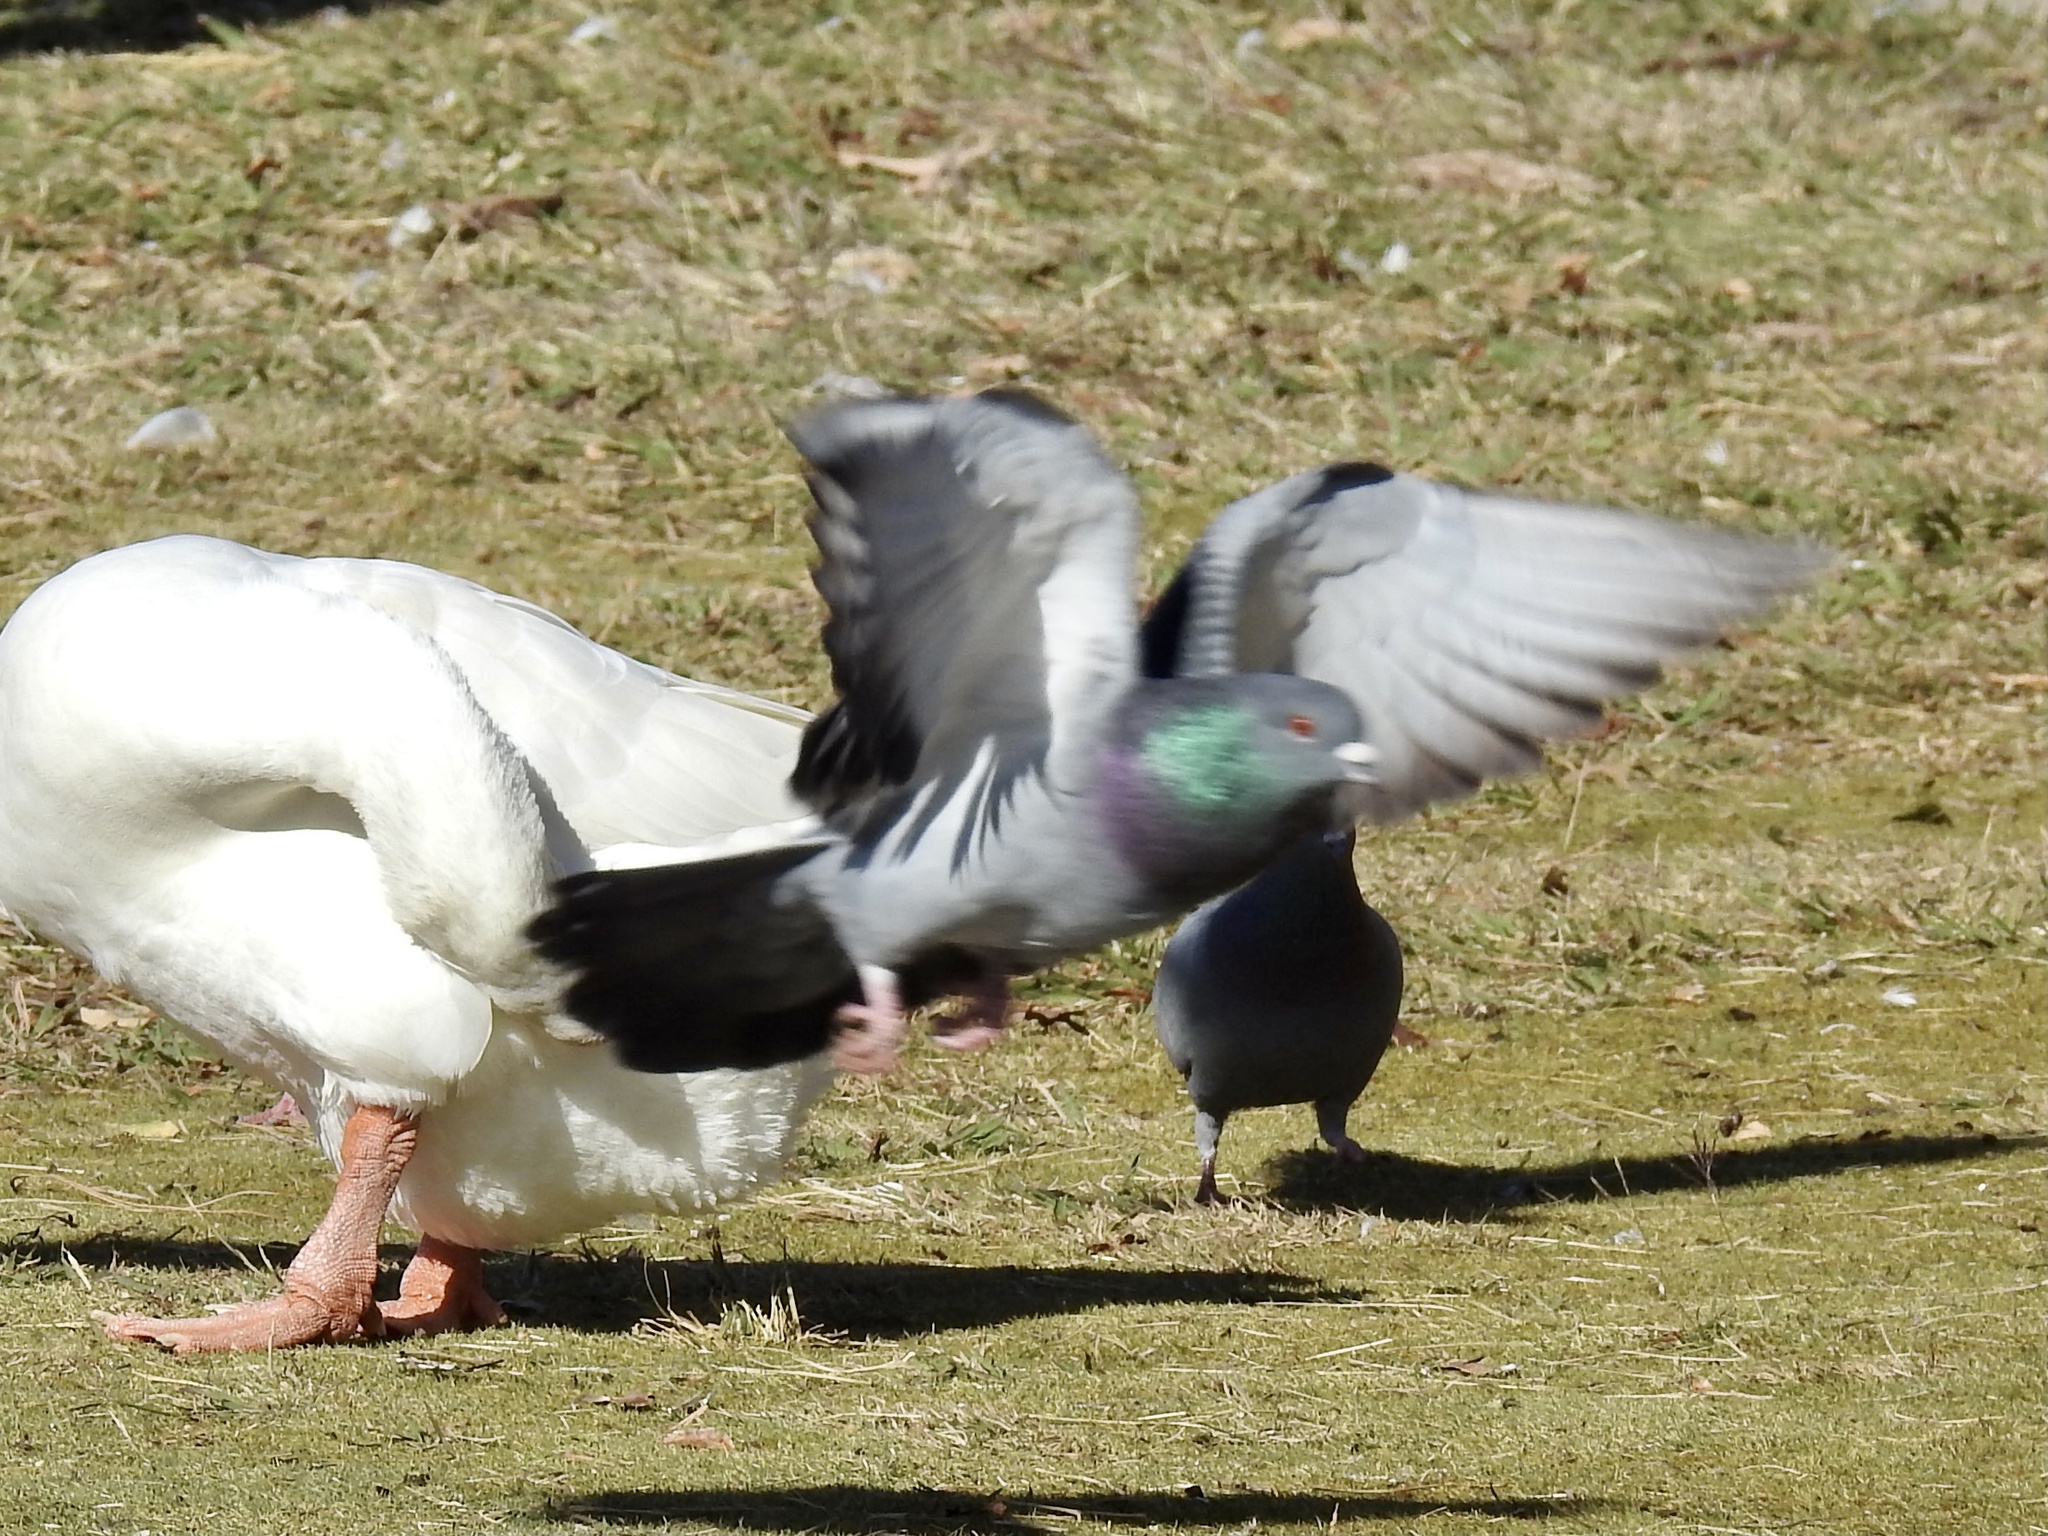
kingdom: Animalia
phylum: Chordata
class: Aves
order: Columbiformes
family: Columbidae
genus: Columba
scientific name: Columba livia
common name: Rock pigeon
